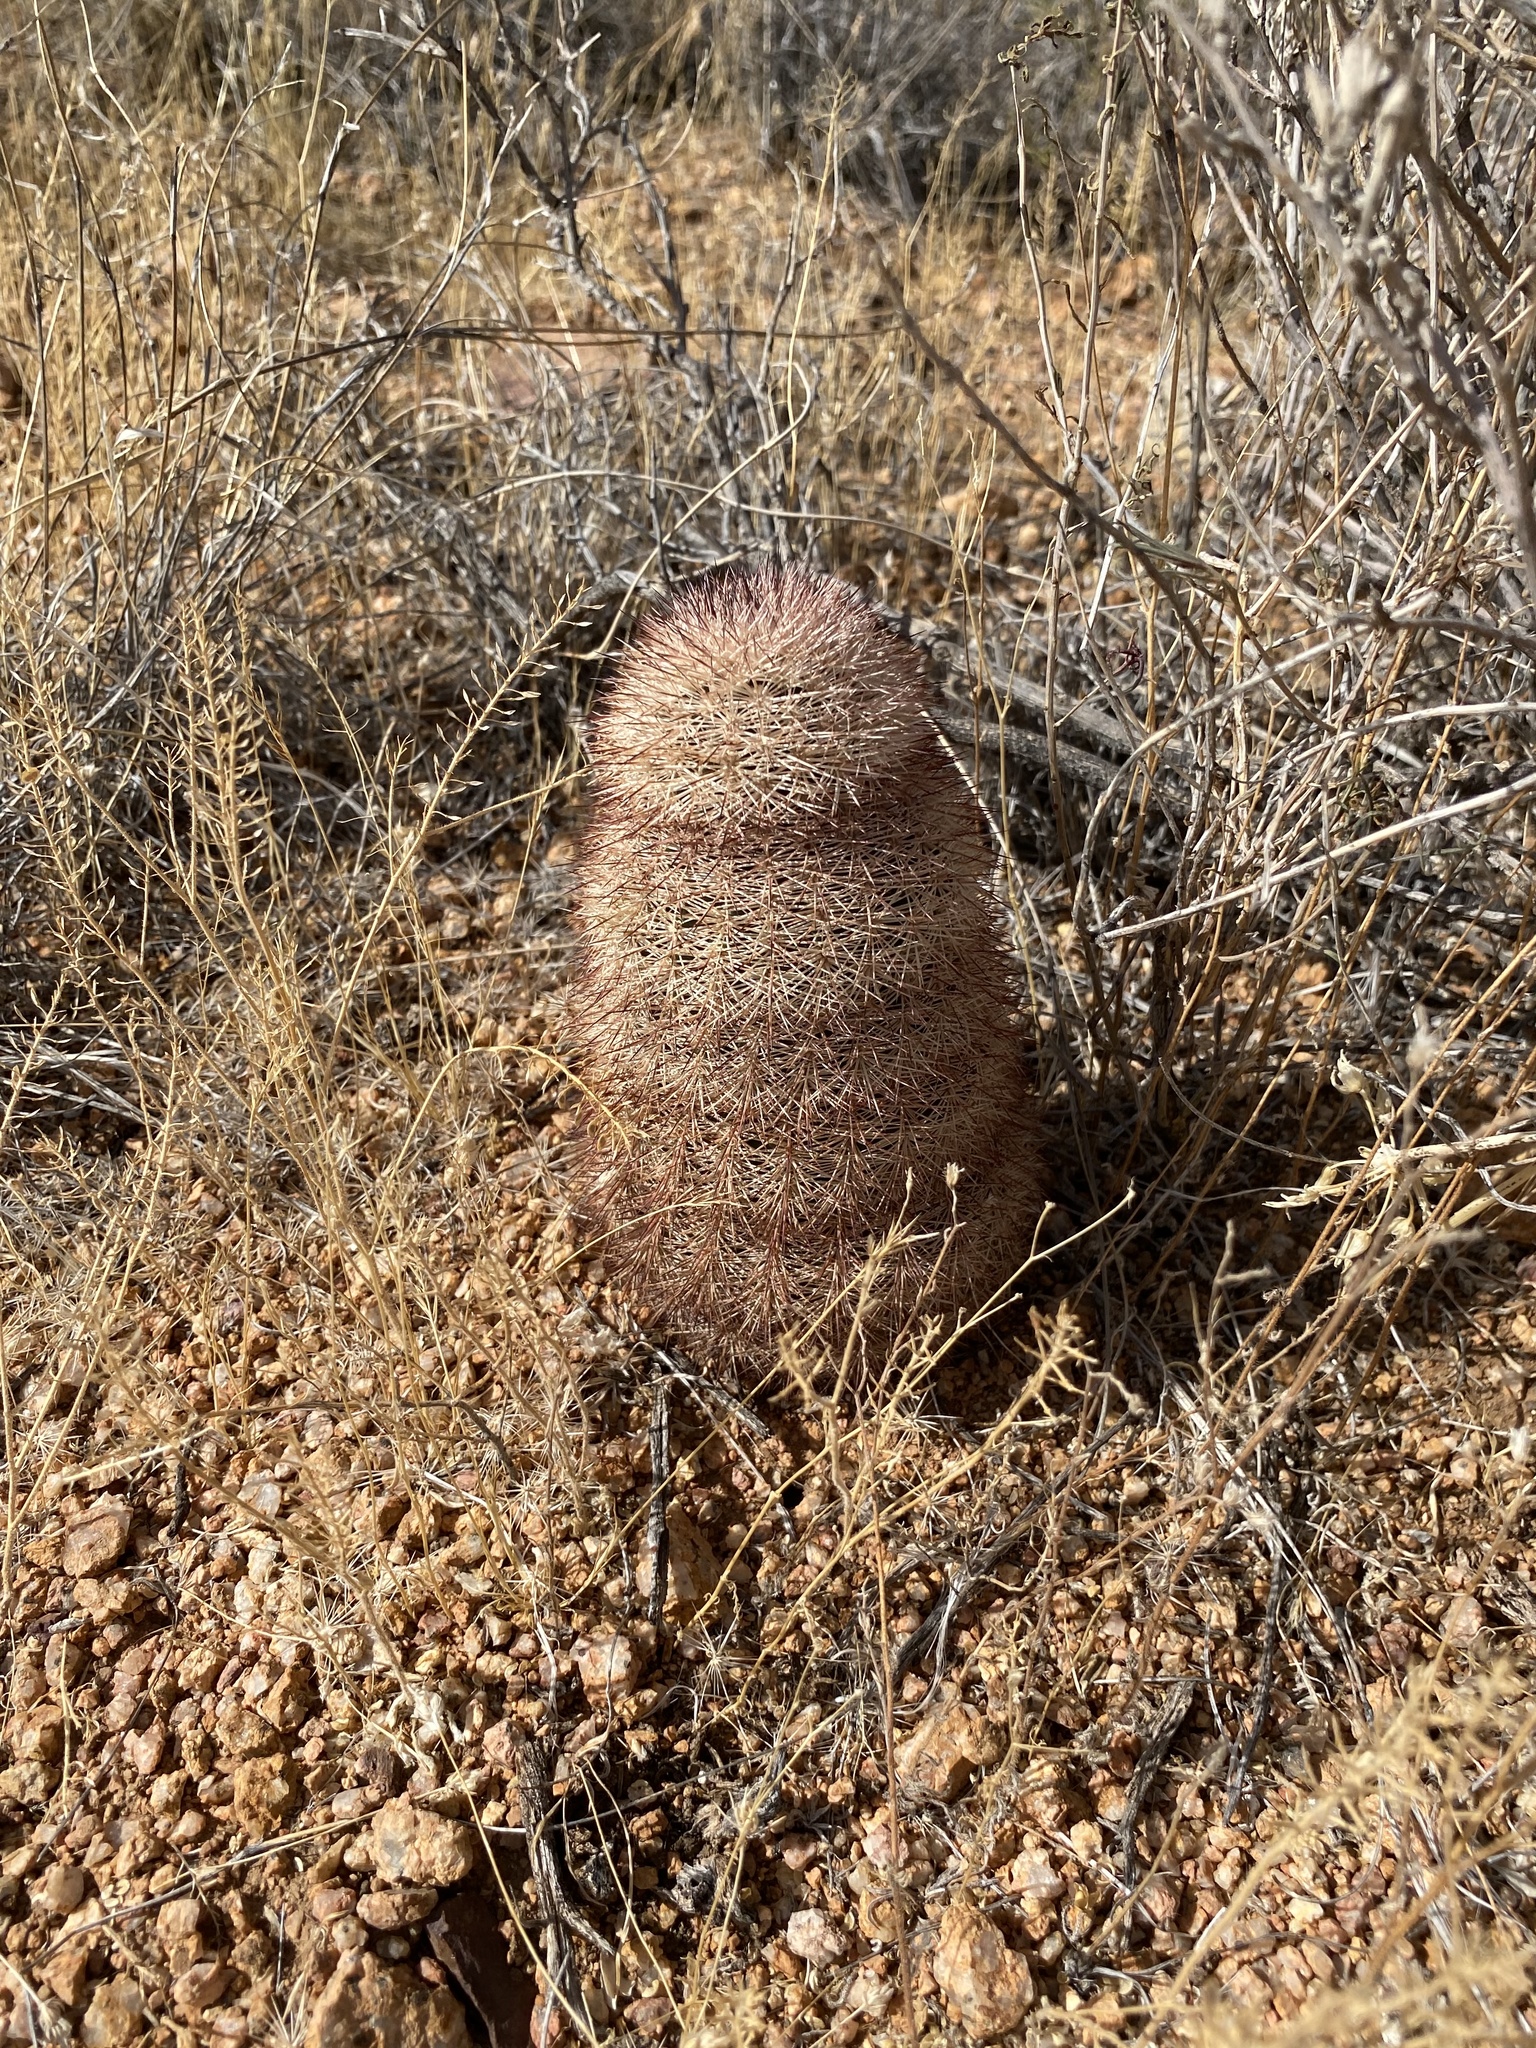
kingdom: Plantae
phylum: Tracheophyta
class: Magnoliopsida
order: Caryophyllales
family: Cactaceae
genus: Echinocereus
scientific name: Echinocereus dasyacanthus
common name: Spiny hedgehog cactus
